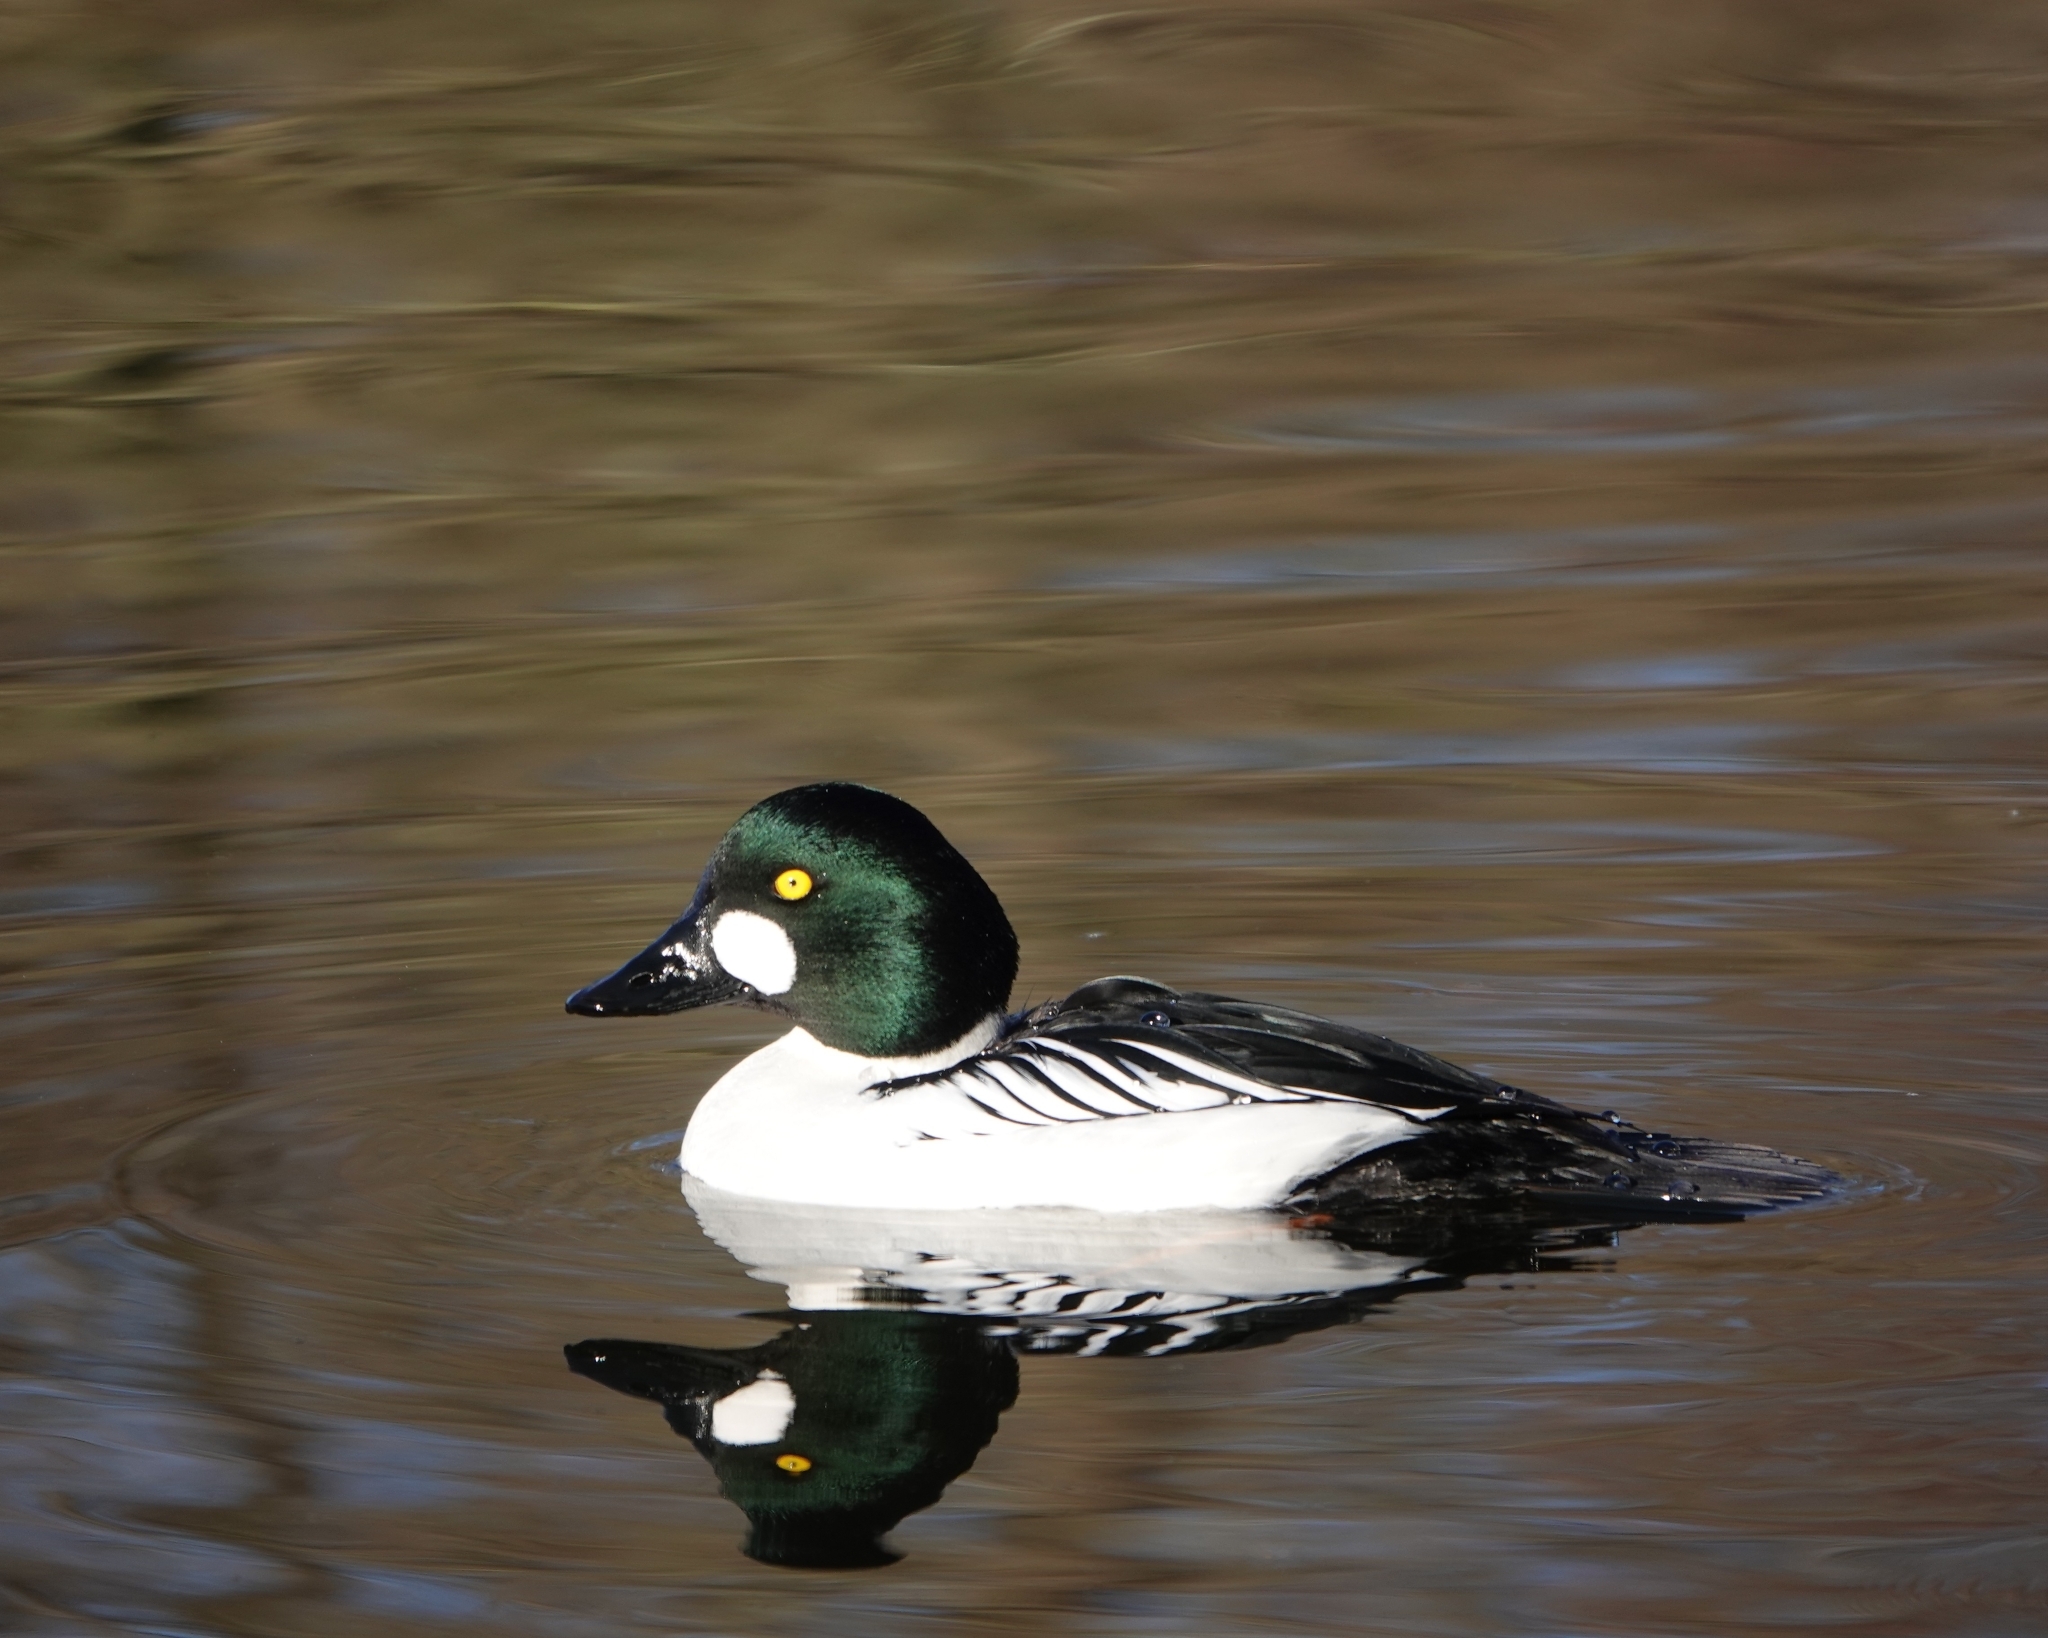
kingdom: Animalia
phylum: Chordata
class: Aves
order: Anseriformes
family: Anatidae
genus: Bucephala
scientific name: Bucephala clangula
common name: Common goldeneye
